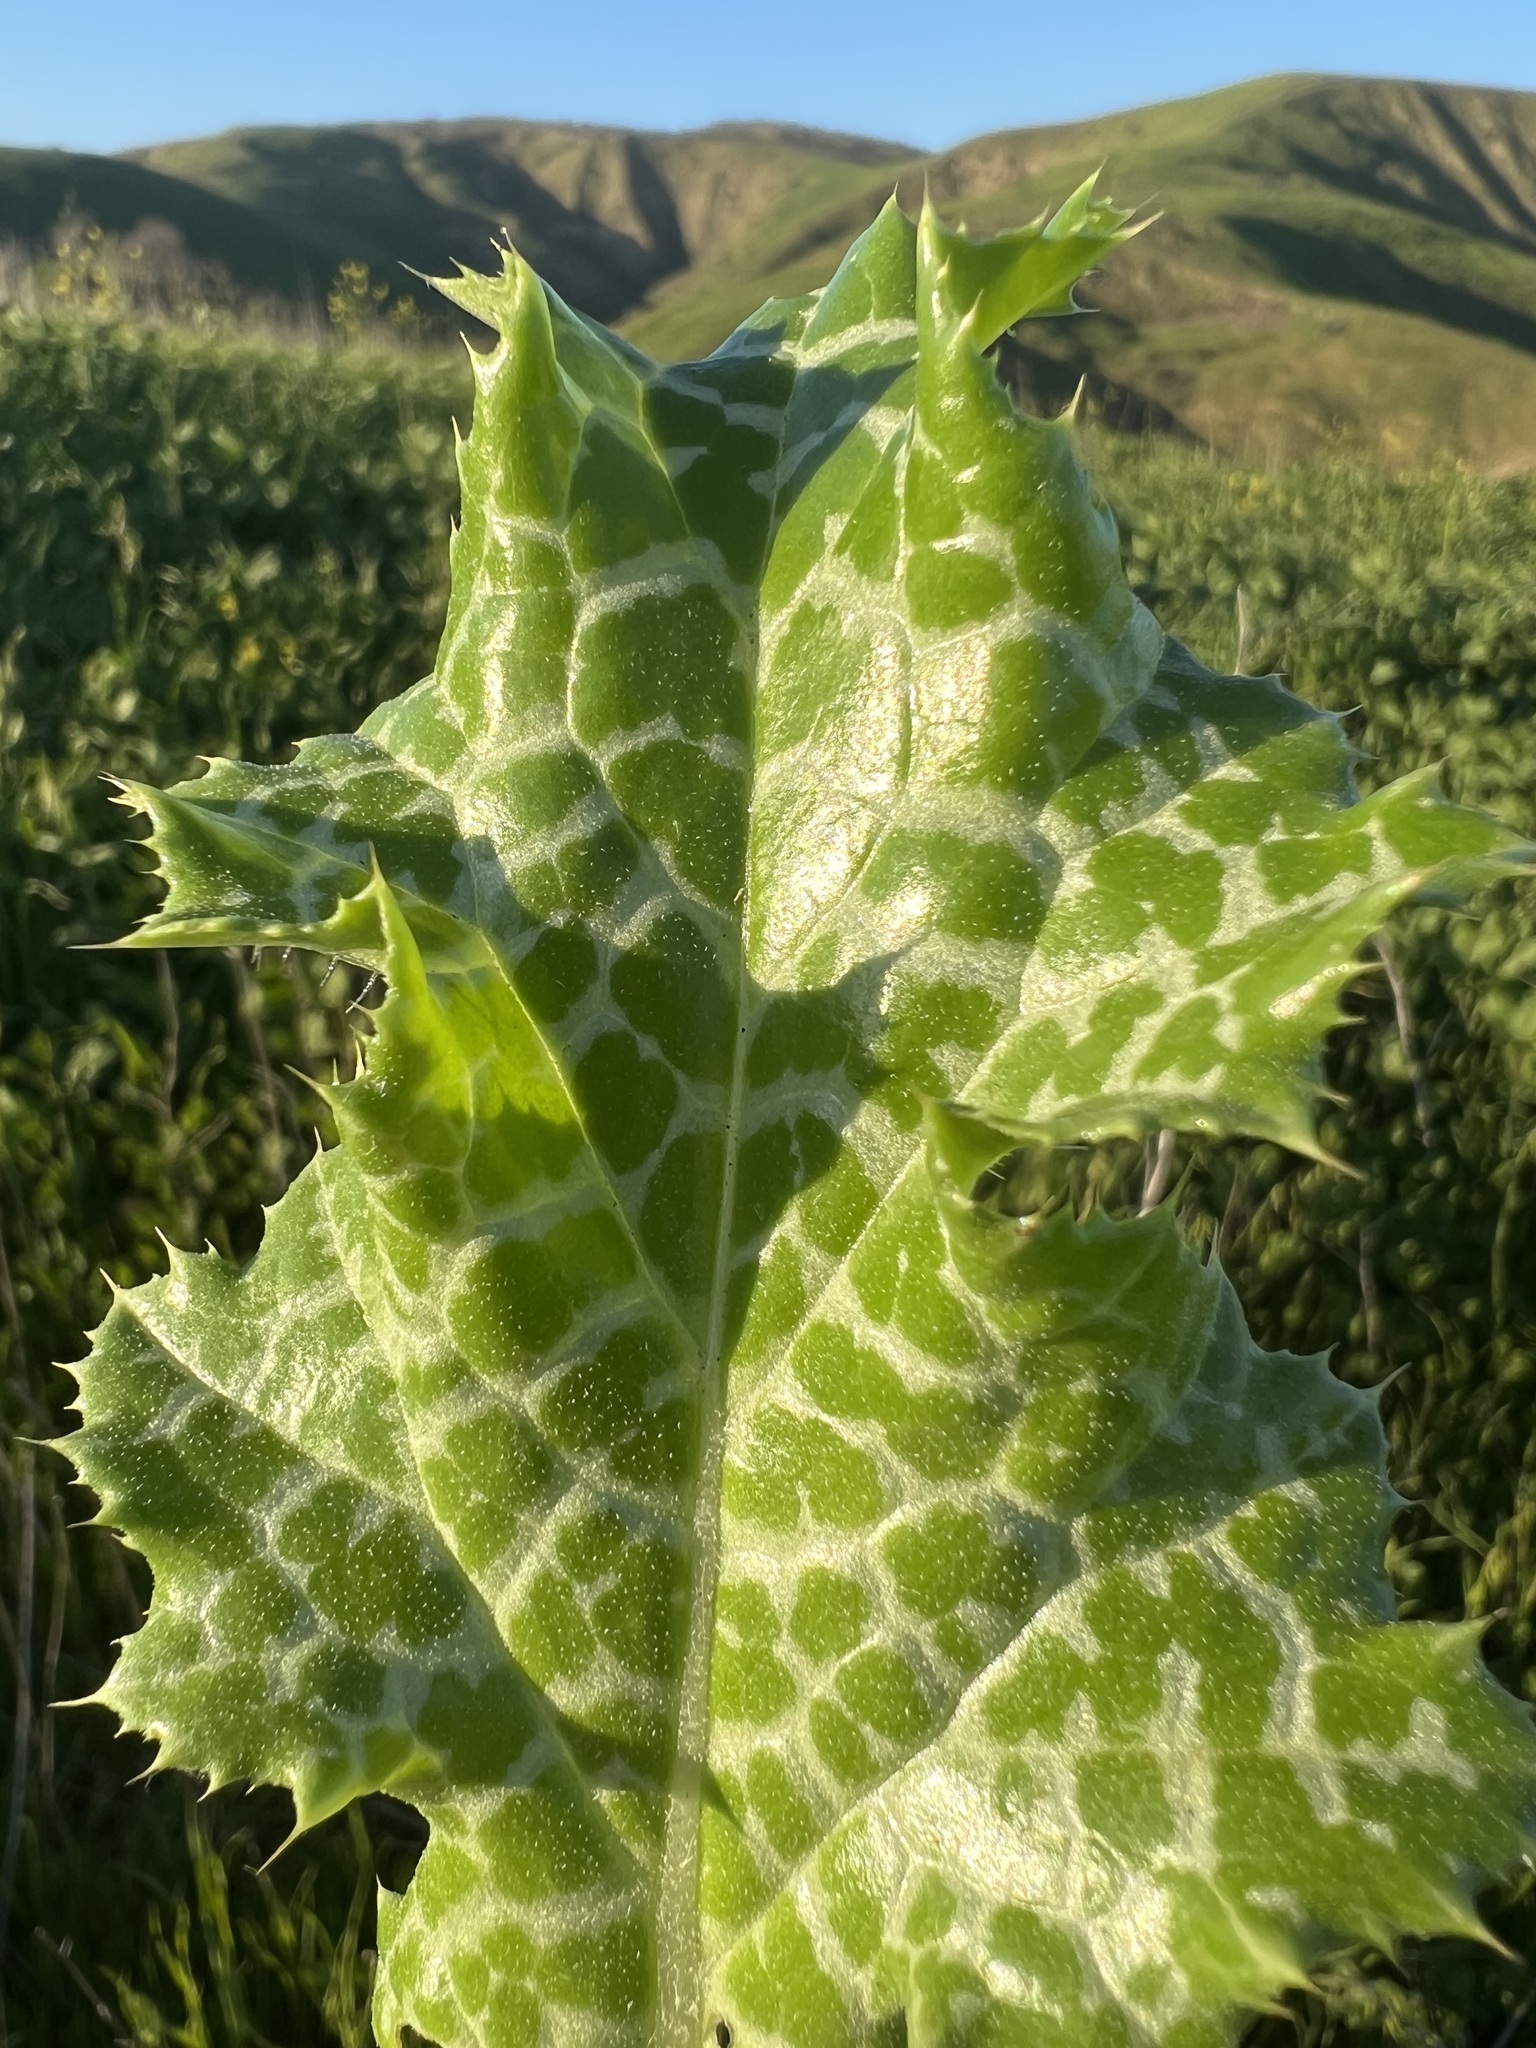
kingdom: Plantae
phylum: Tracheophyta
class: Magnoliopsida
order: Asterales
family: Asteraceae
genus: Silybum
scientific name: Silybum marianum
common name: Milk thistle
